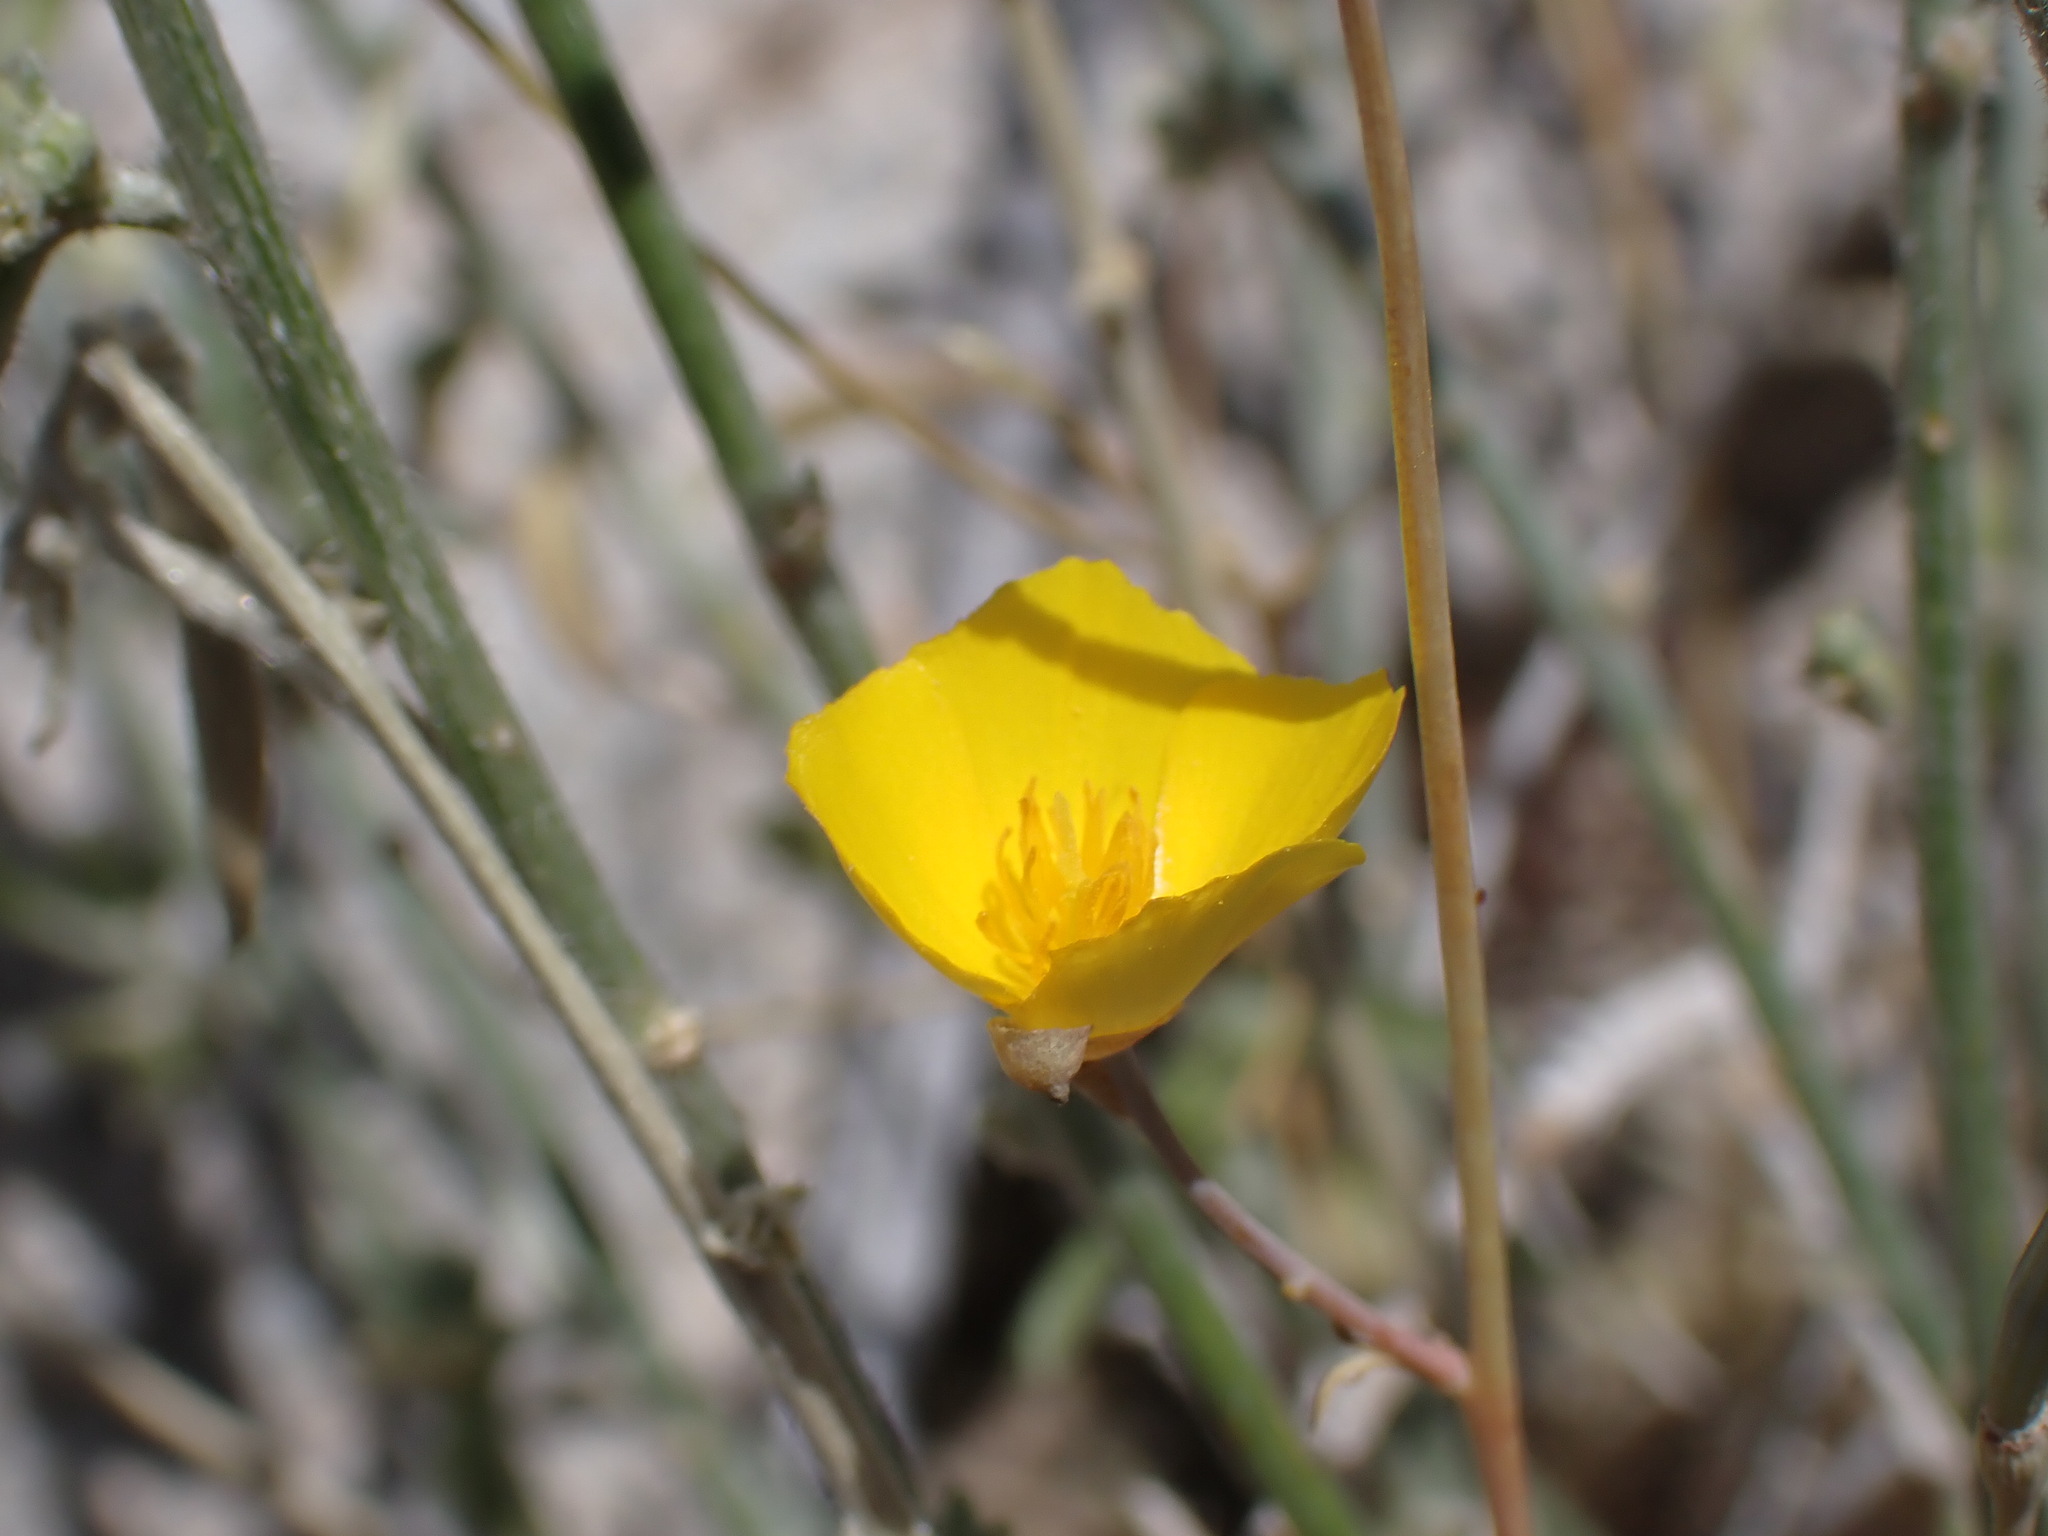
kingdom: Plantae
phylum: Tracheophyta
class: Magnoliopsida
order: Ranunculales
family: Papaveraceae
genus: Eschscholzia
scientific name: Eschscholzia parishii
